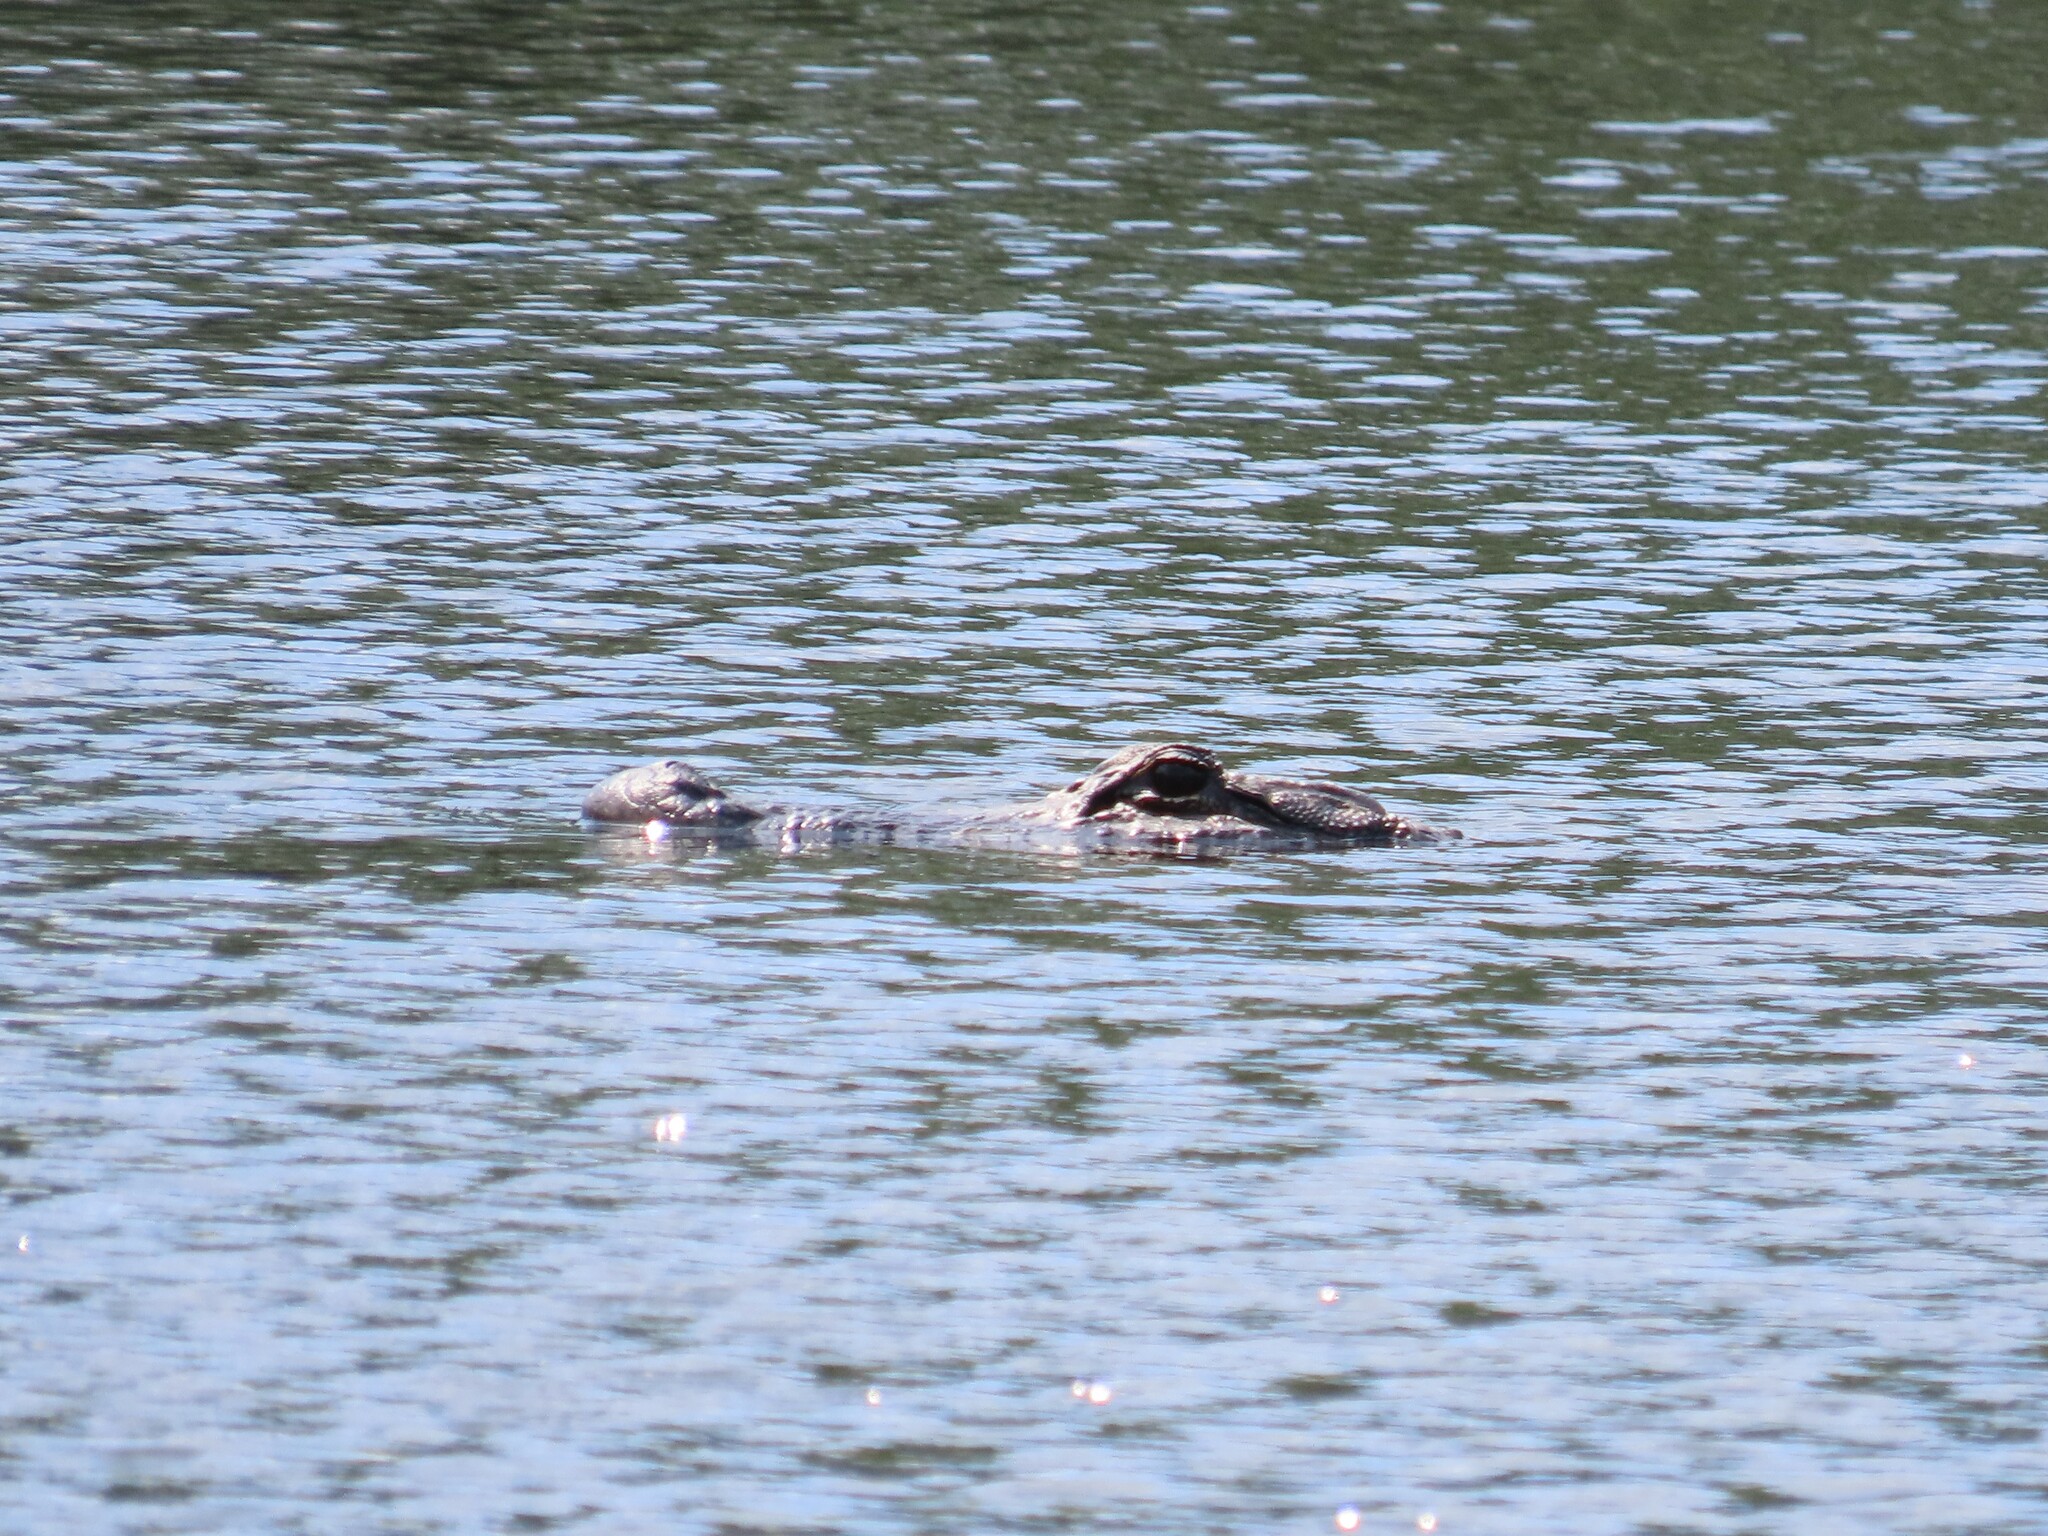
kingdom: Animalia
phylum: Chordata
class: Crocodylia
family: Alligatoridae
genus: Alligator
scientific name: Alligator mississippiensis
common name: American alligator
